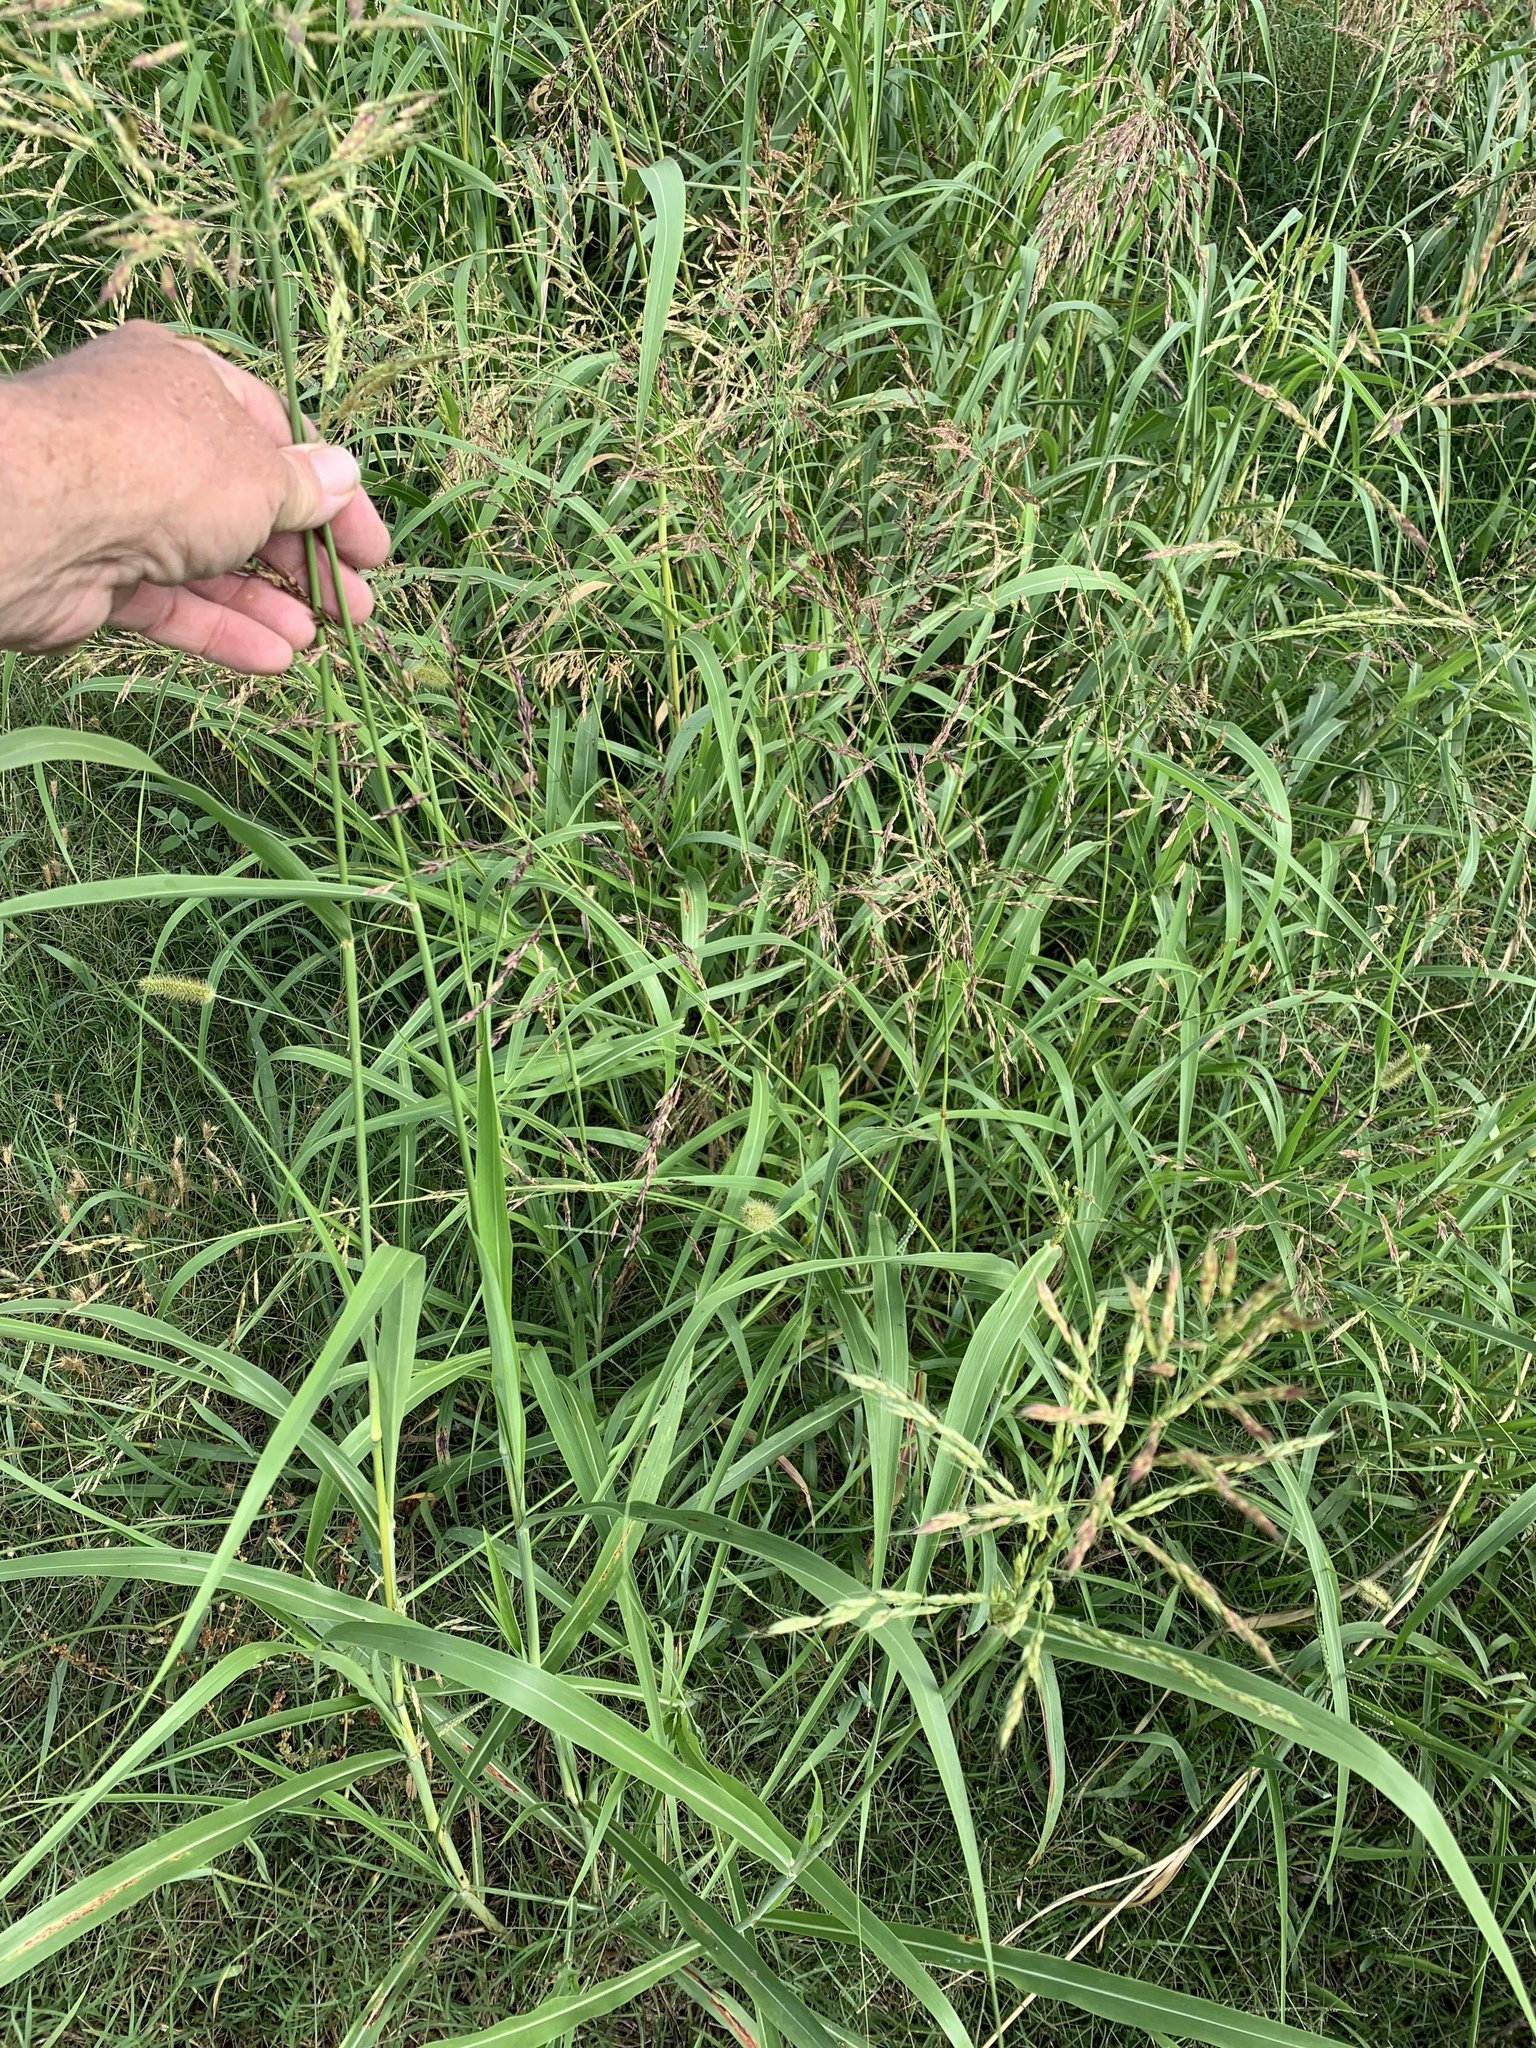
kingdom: Plantae
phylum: Tracheophyta
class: Liliopsida
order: Poales
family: Poaceae
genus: Sorghum
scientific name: Sorghum halepense
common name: Johnson-grass
